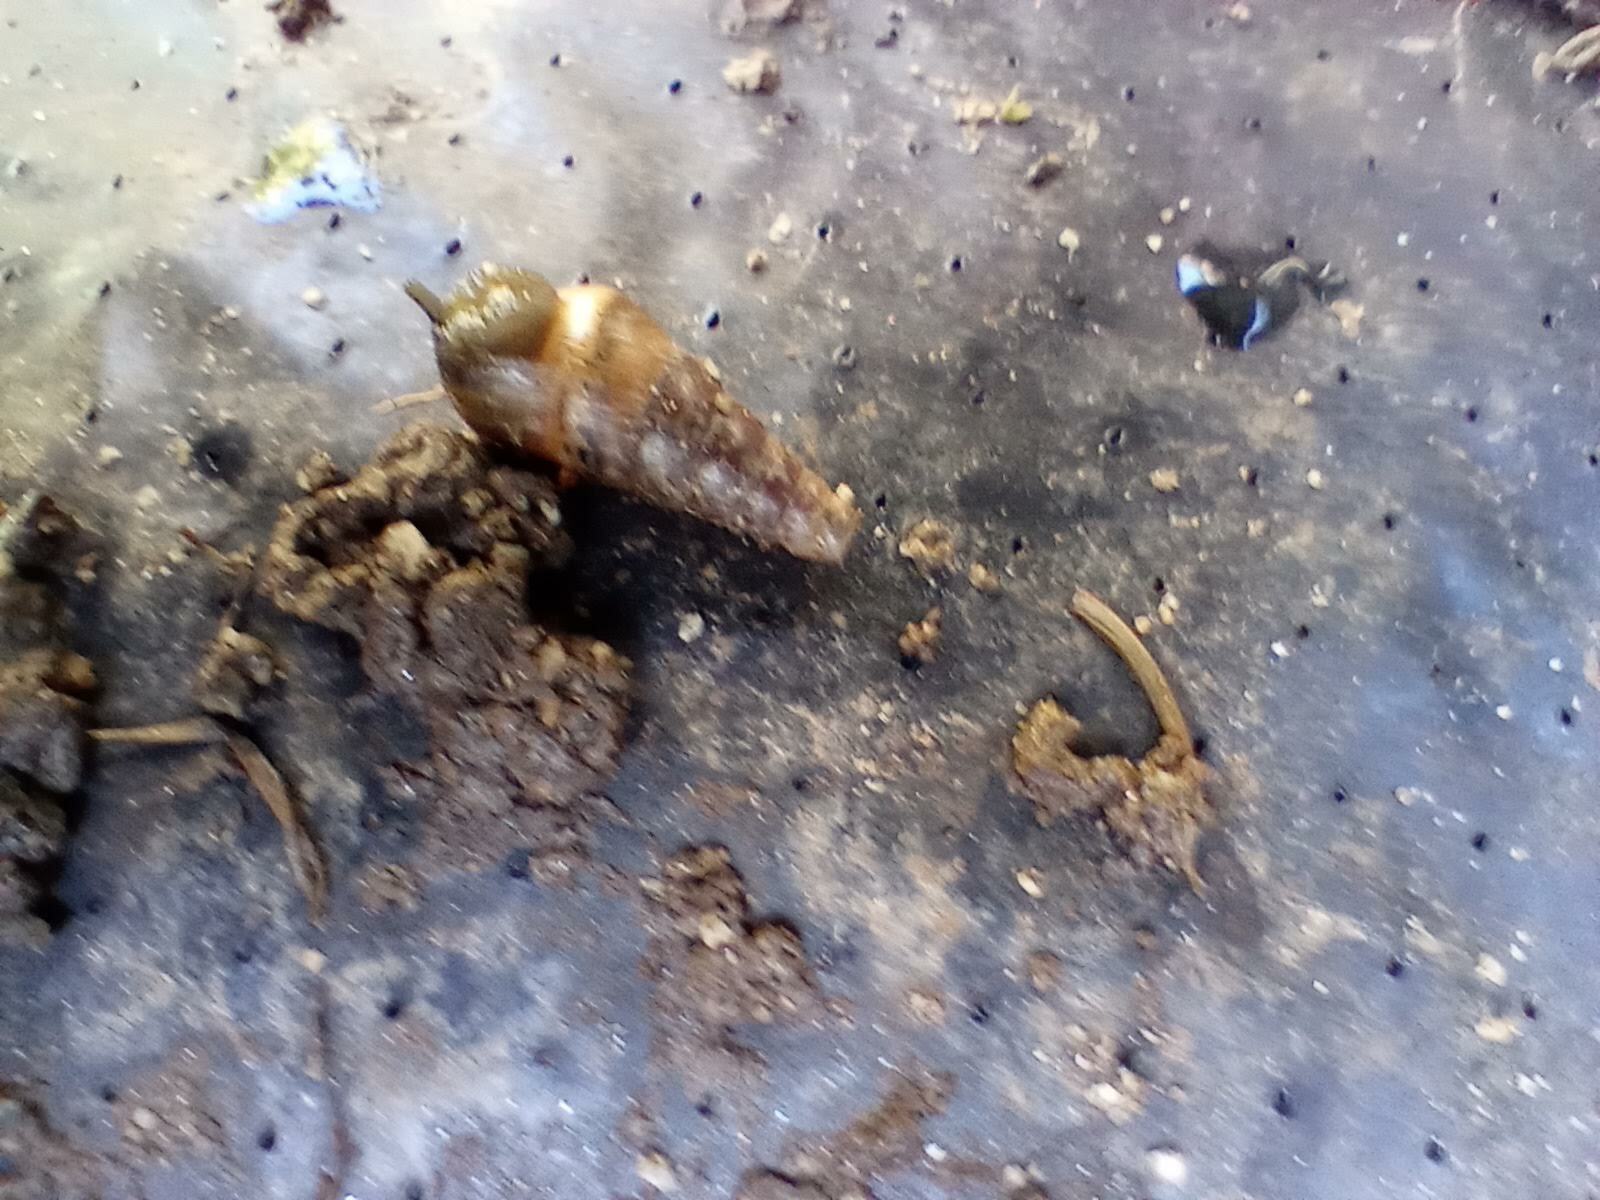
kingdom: Animalia
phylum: Mollusca
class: Gastropoda
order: Stylommatophora
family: Achatinidae
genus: Rumina
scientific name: Rumina decollata
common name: Decollate snail
